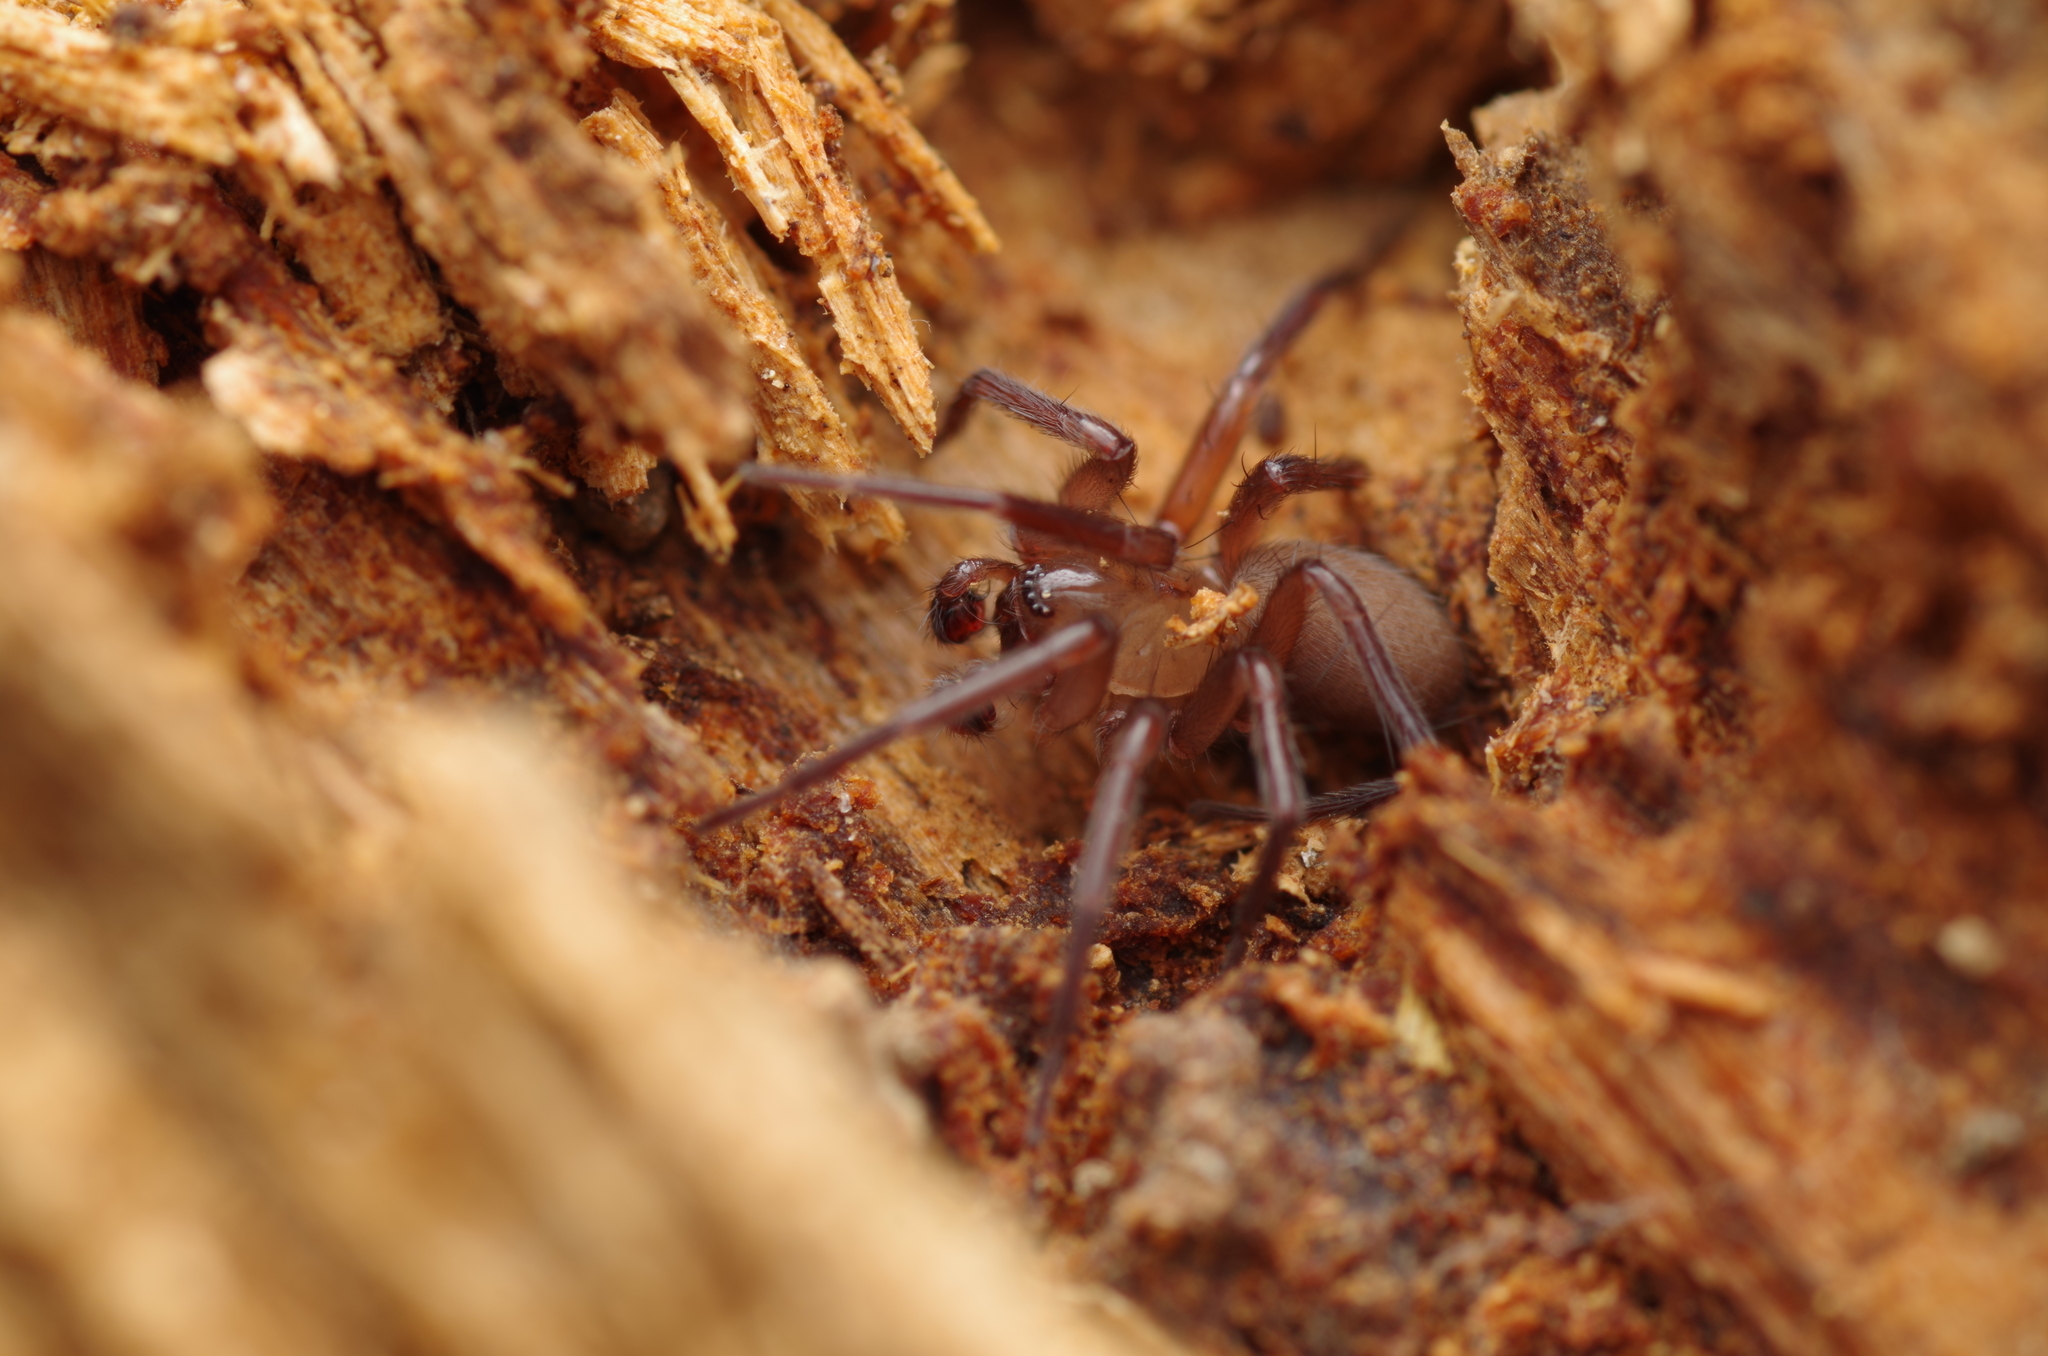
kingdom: Animalia
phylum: Arthropoda
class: Arachnida
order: Araneae
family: Hahniidae
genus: Cicurina
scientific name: Cicurina cicur
